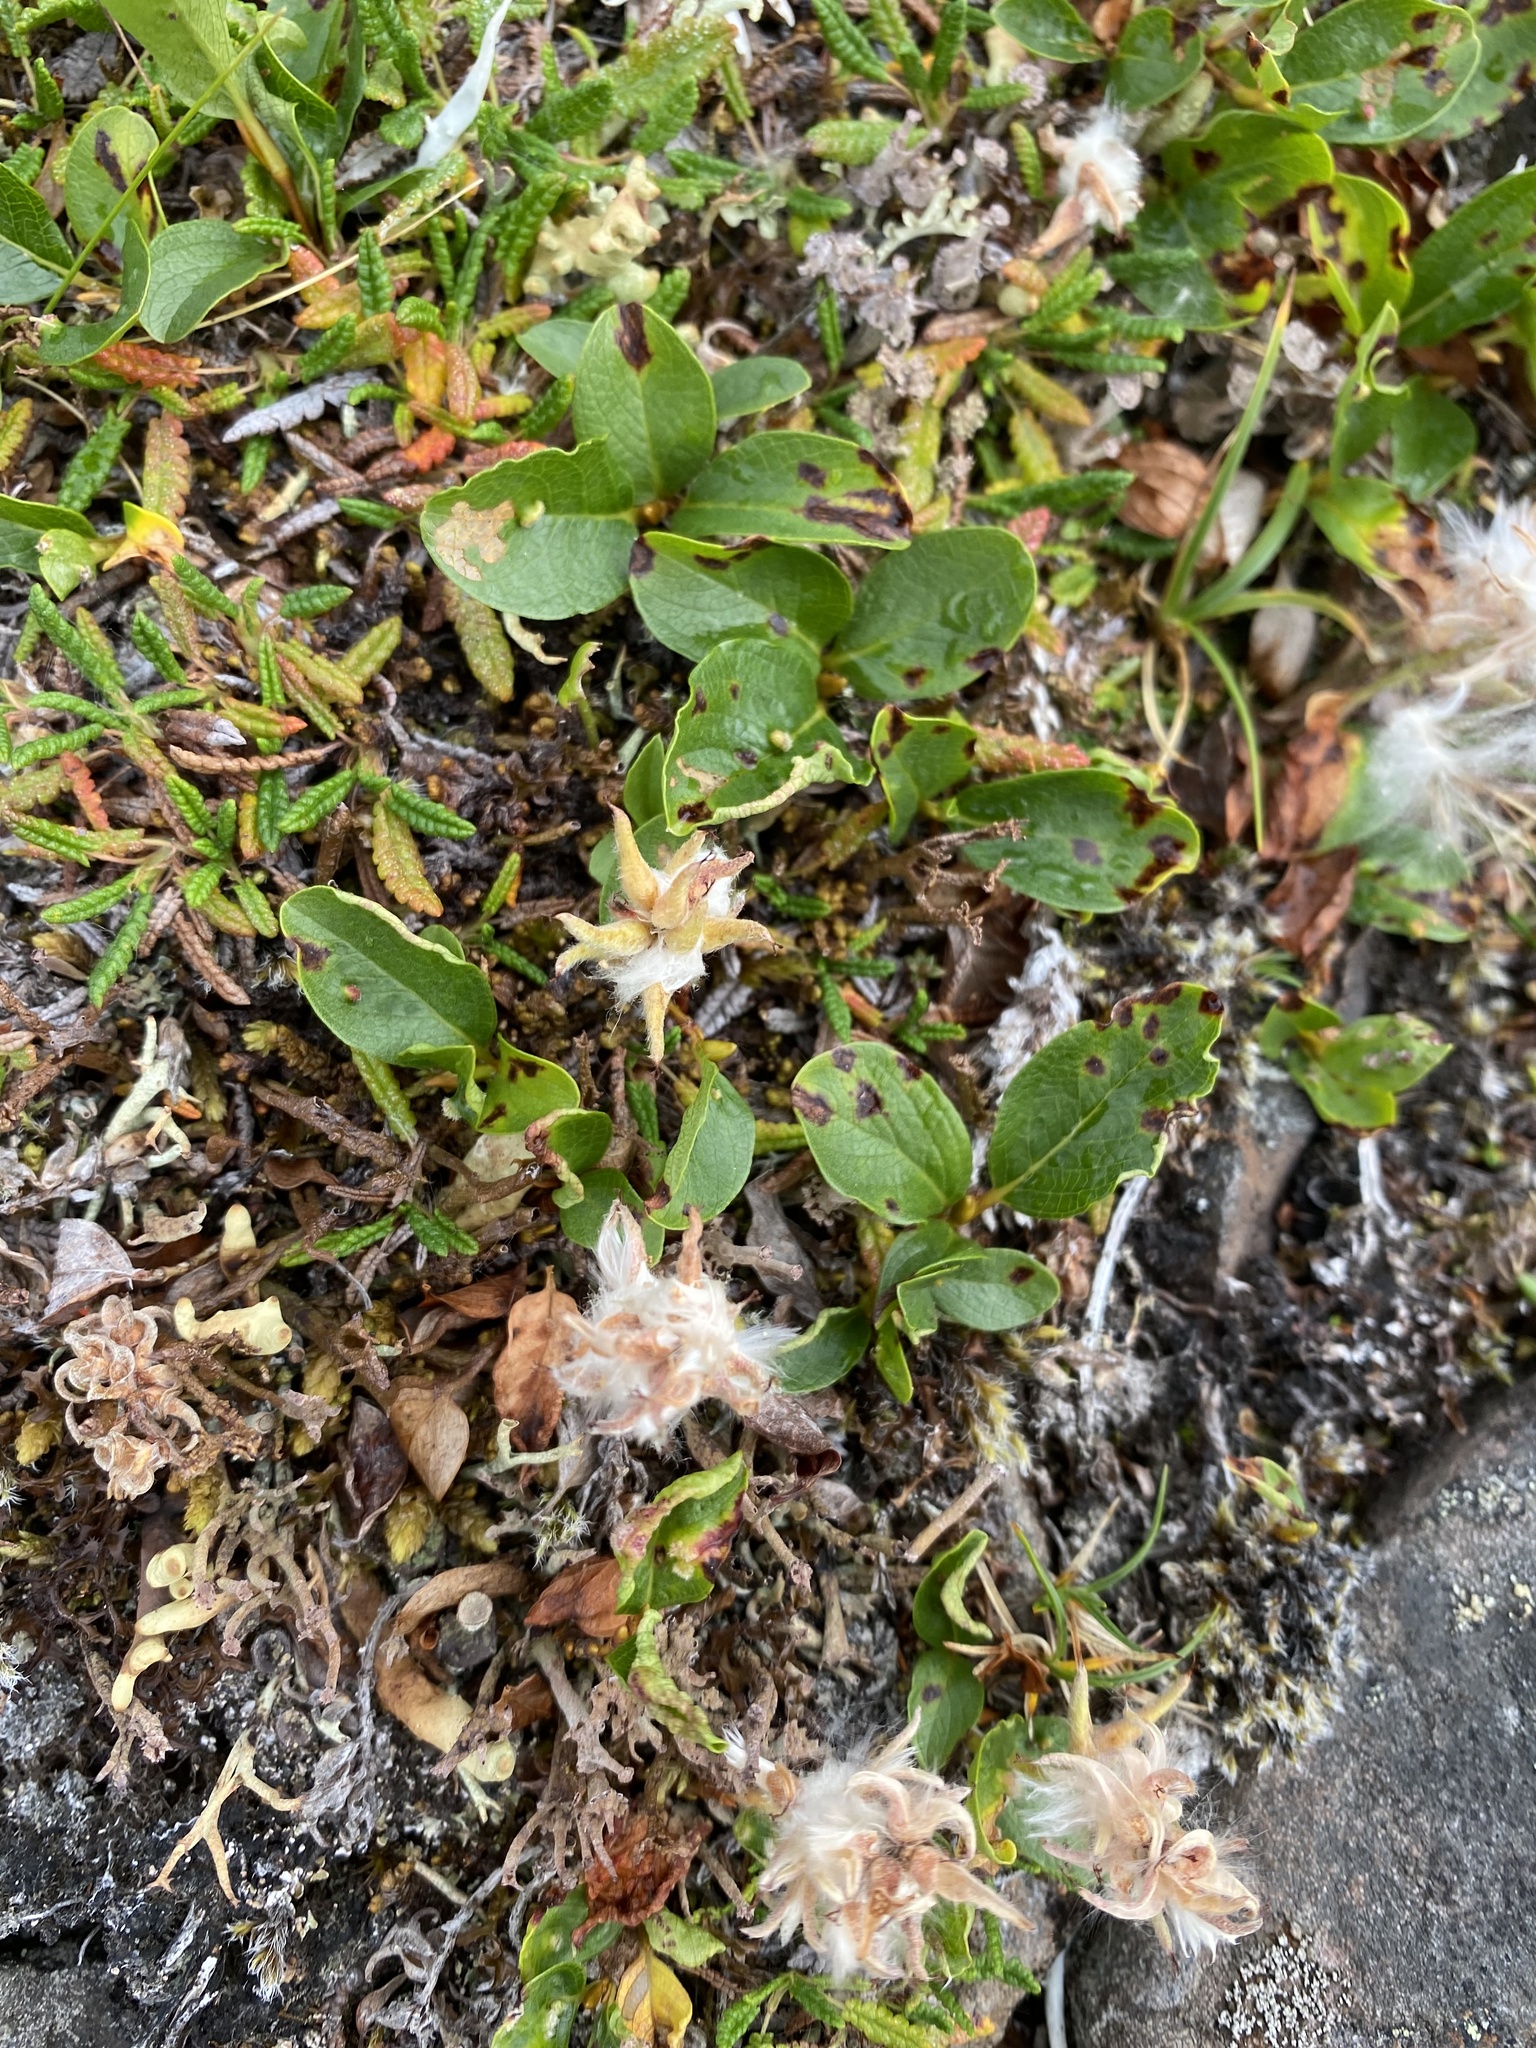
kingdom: Plantae
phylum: Tracheophyta
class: Magnoliopsida
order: Malpighiales
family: Salicaceae
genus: Salix
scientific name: Salix polaris
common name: Polar willow
